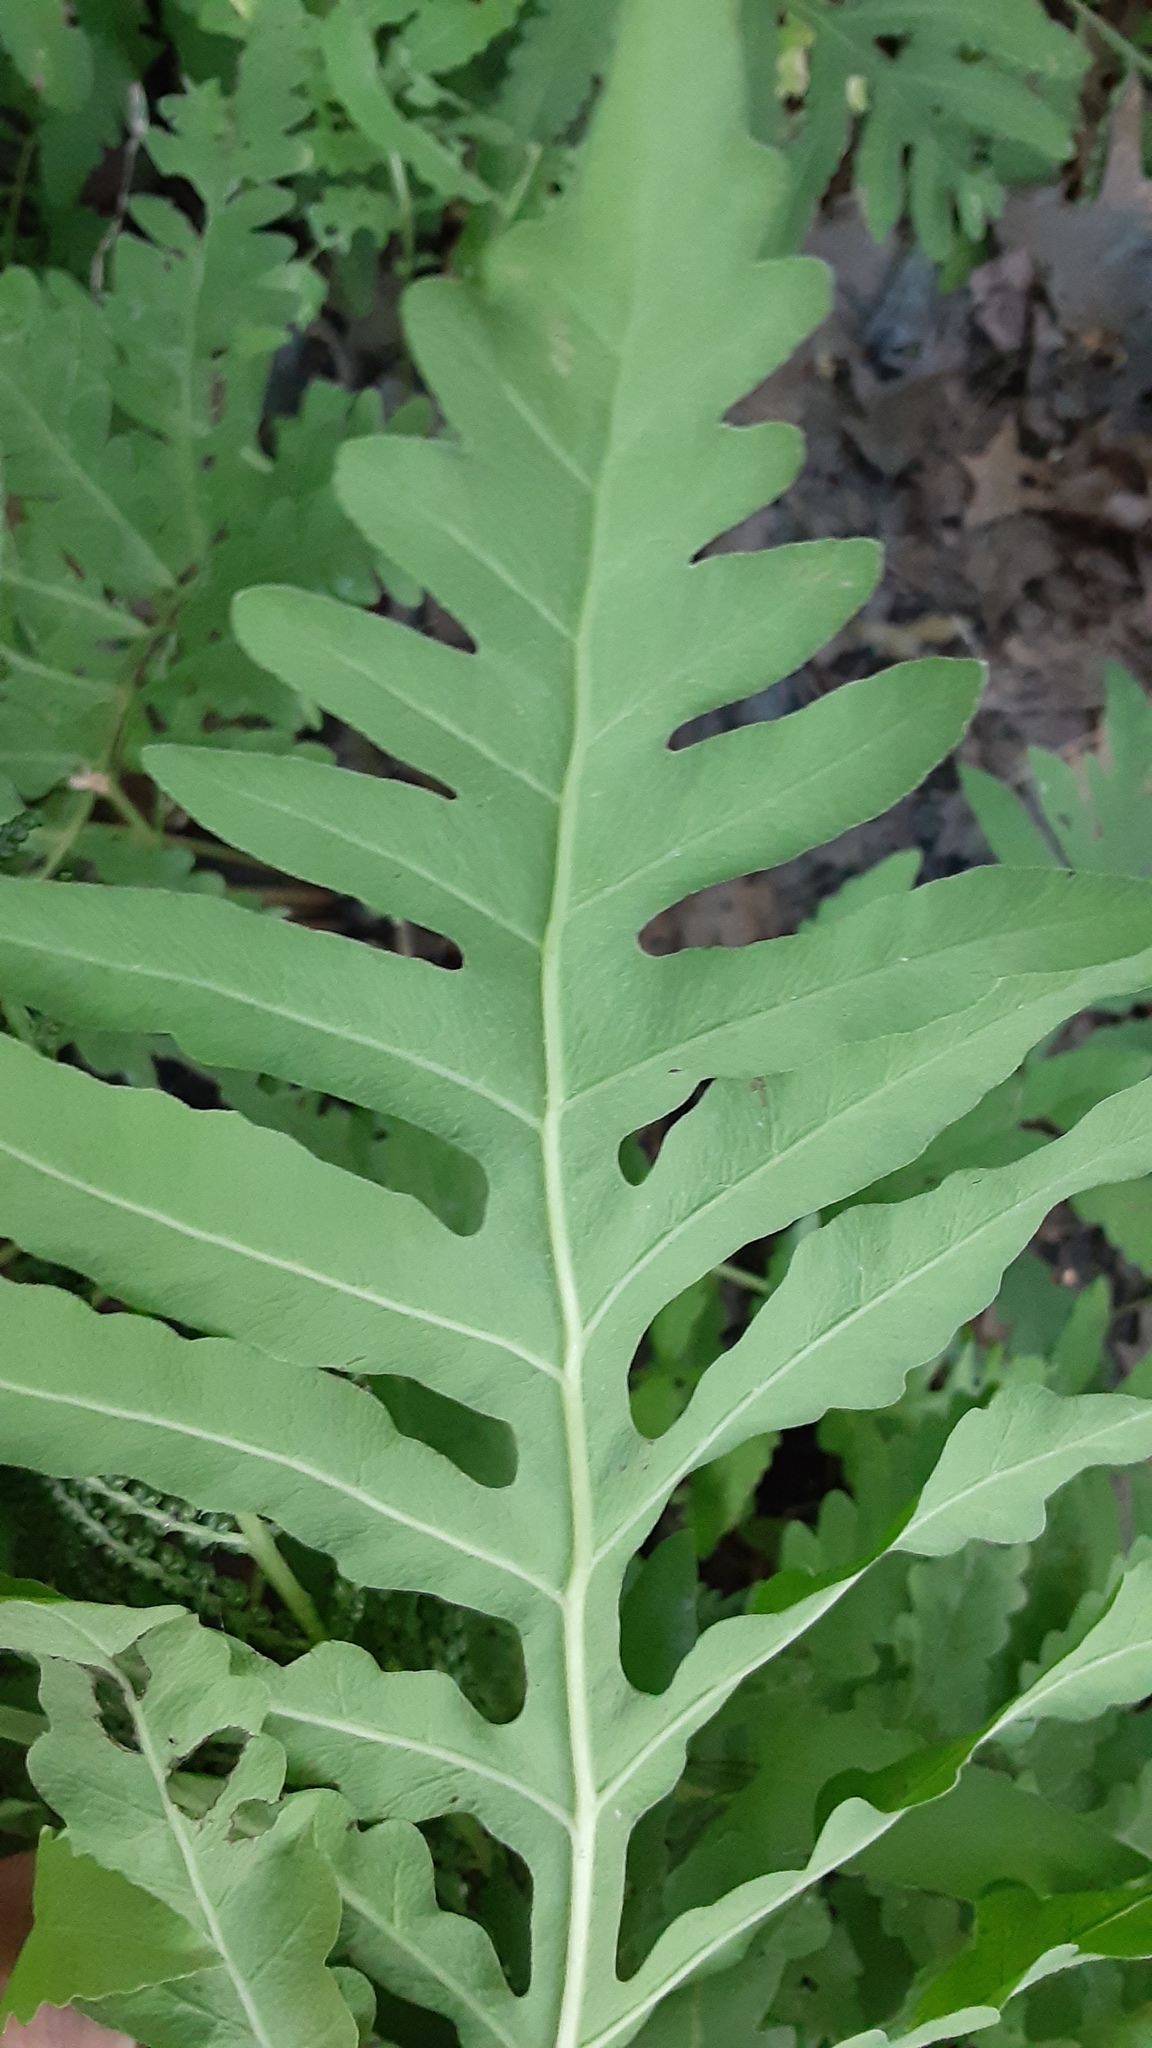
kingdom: Plantae
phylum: Tracheophyta
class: Polypodiopsida
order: Polypodiales
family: Onocleaceae
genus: Onoclea
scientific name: Onoclea sensibilis
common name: Sensitive fern
